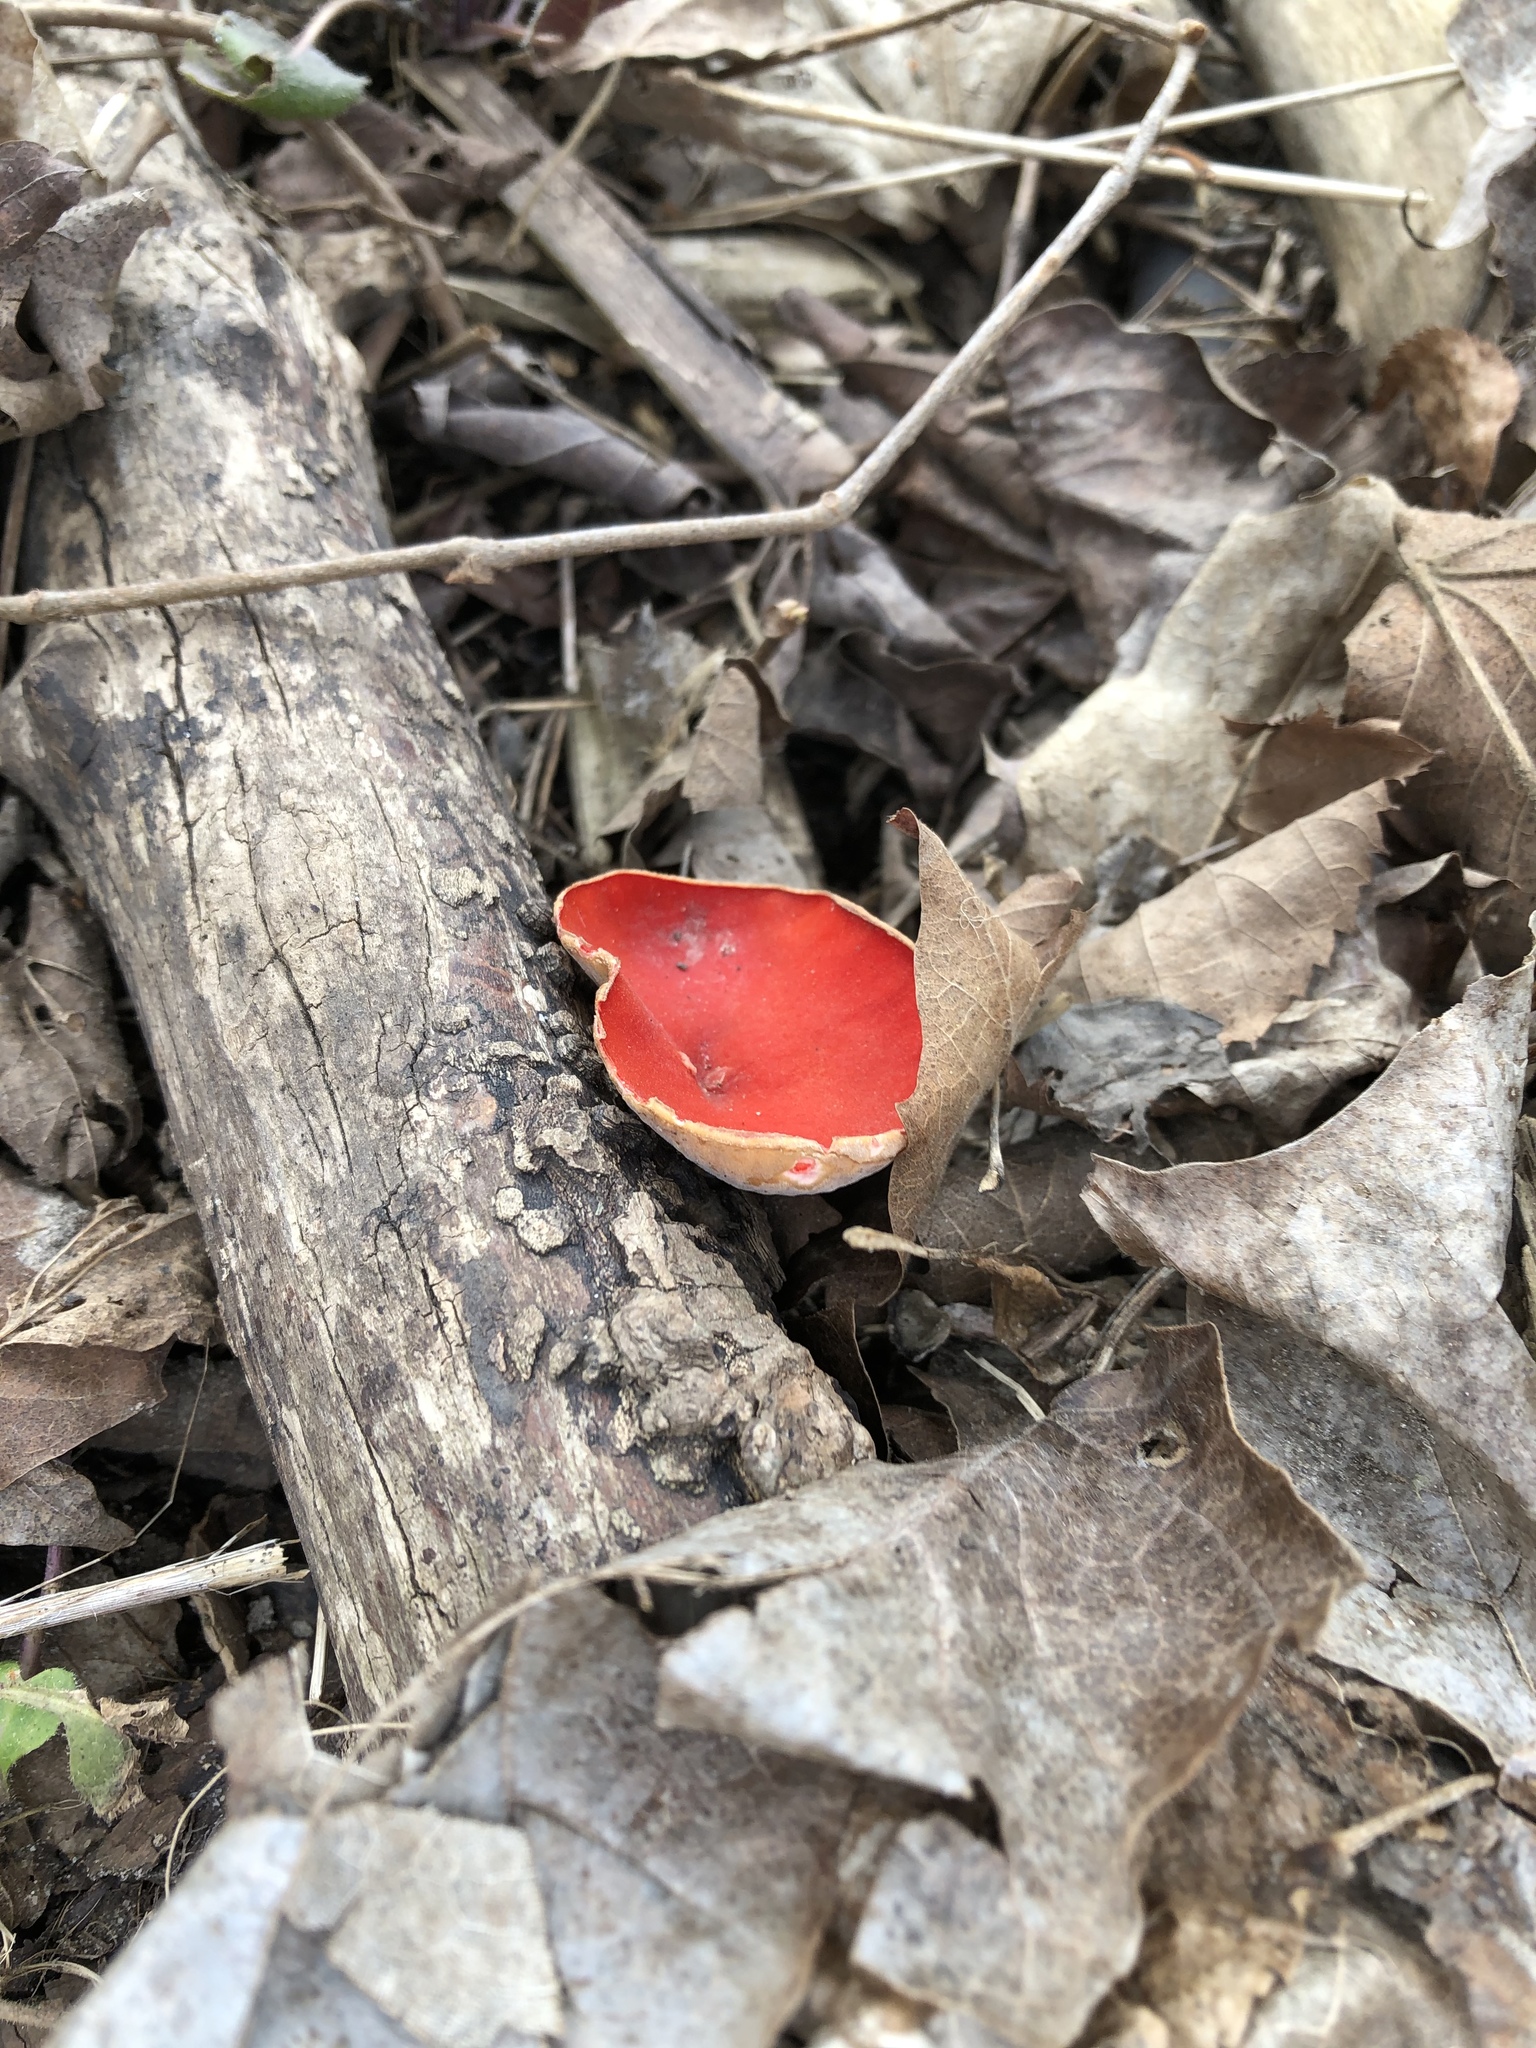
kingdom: Fungi
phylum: Ascomycota
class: Pezizomycetes
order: Pezizales
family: Sarcoscyphaceae
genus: Sarcoscypha
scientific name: Sarcoscypha
